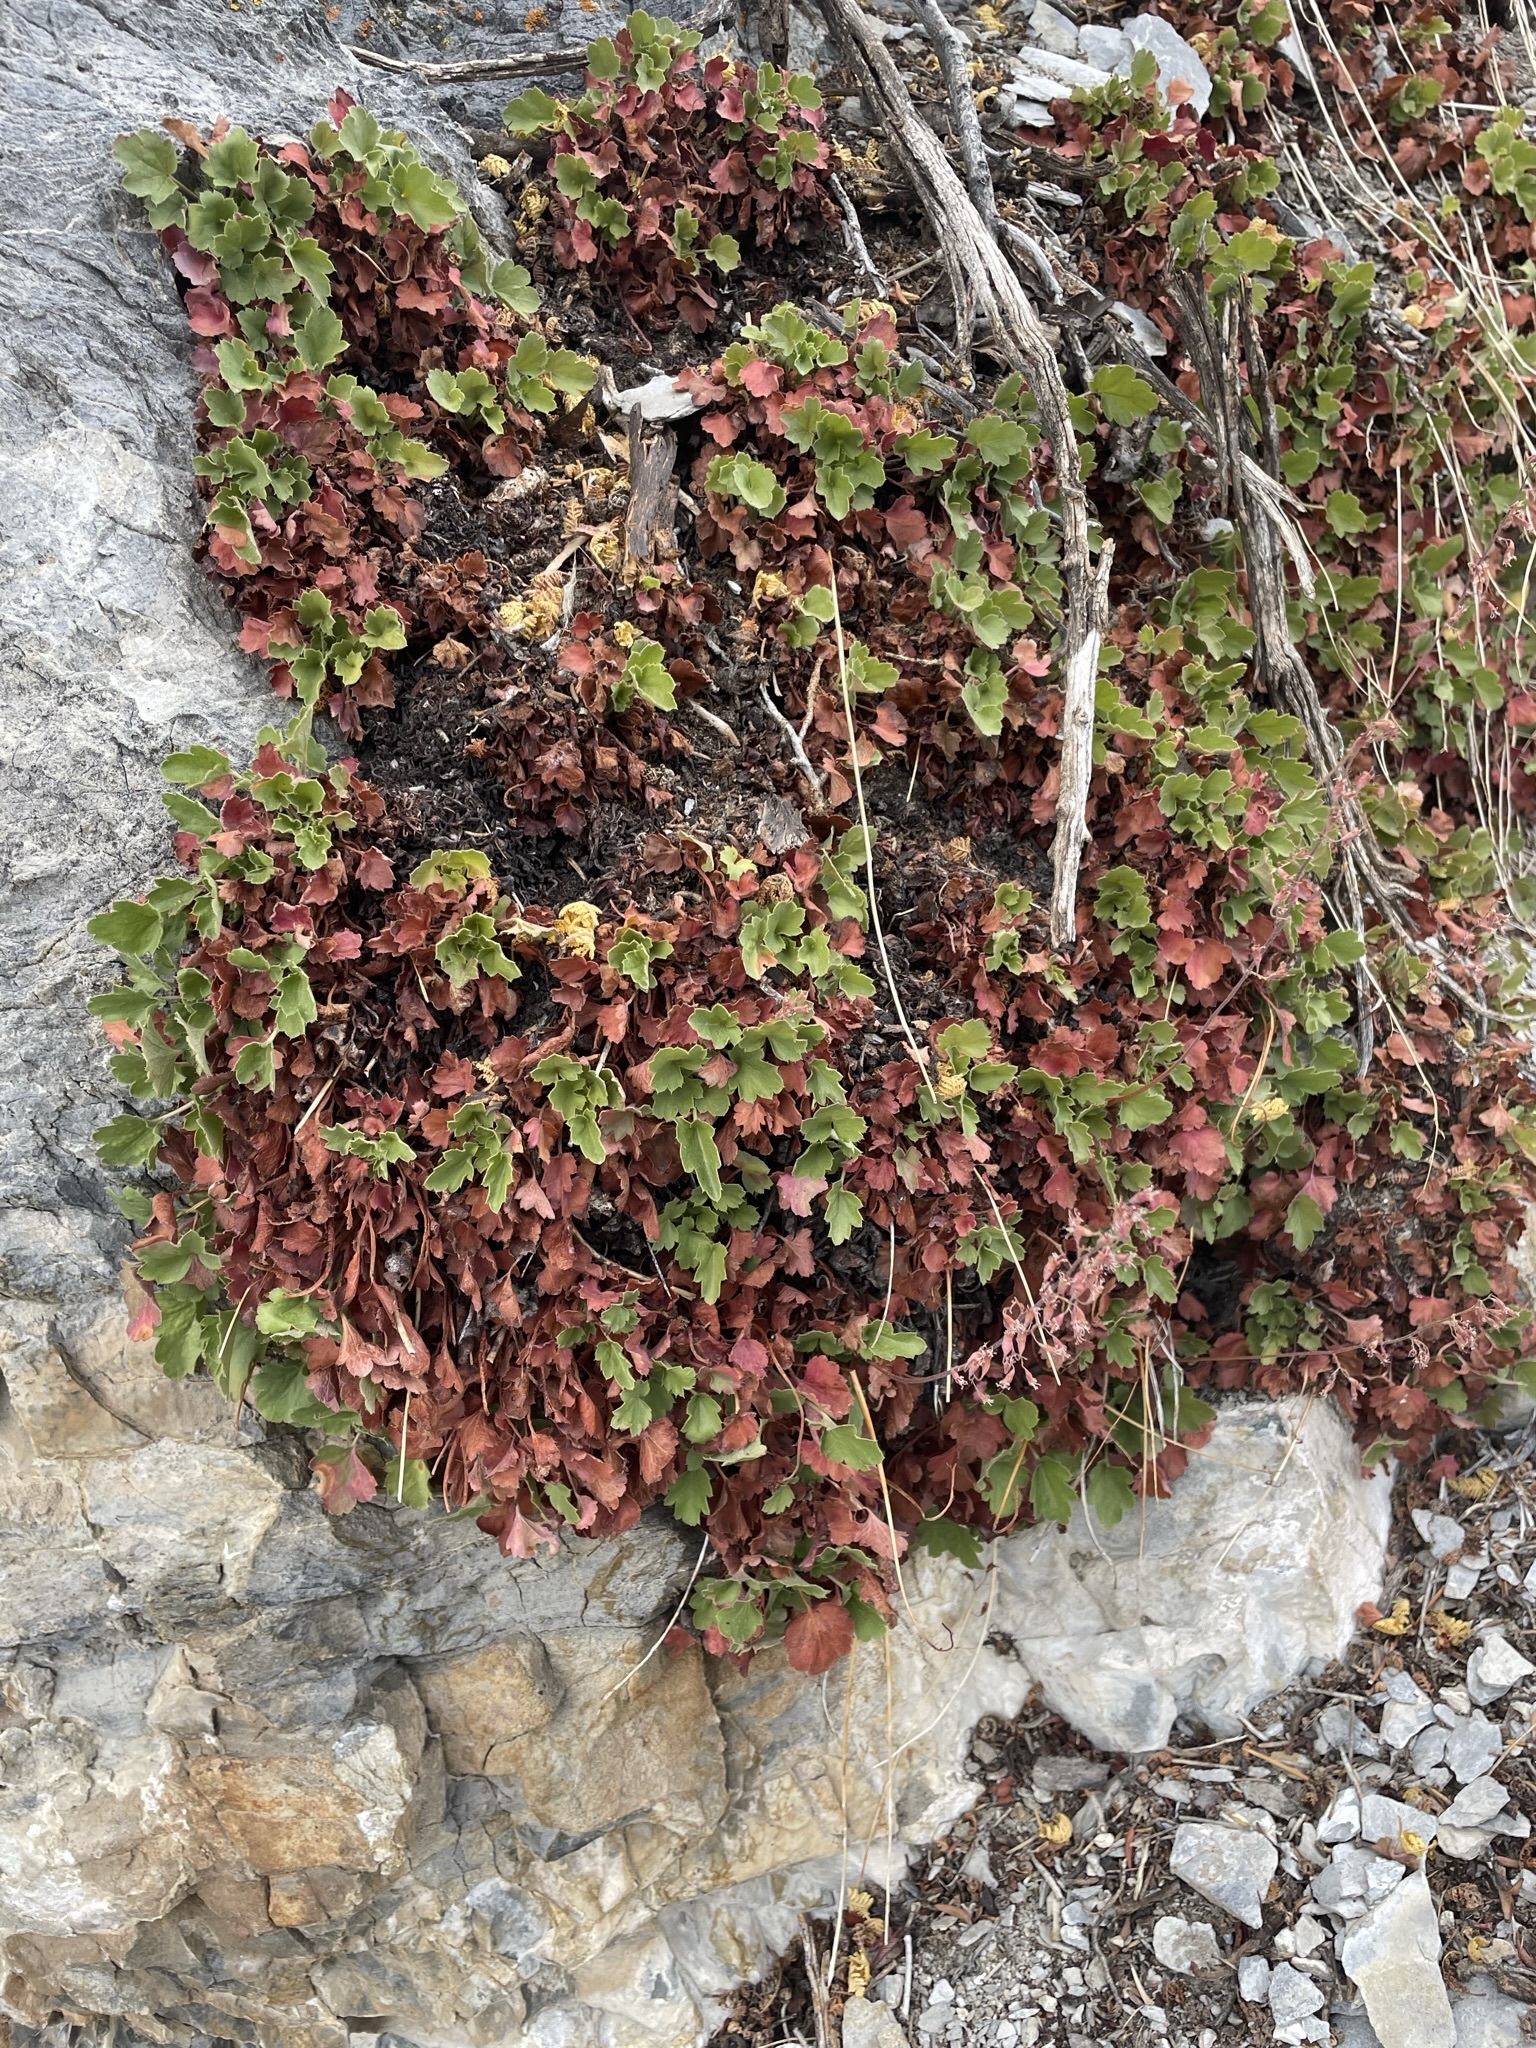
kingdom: Plantae
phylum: Tracheophyta
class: Magnoliopsida
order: Saxifragales
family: Saxifragaceae
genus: Heuchera
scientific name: Heuchera rubescens
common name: Jack-o'the-rocks
